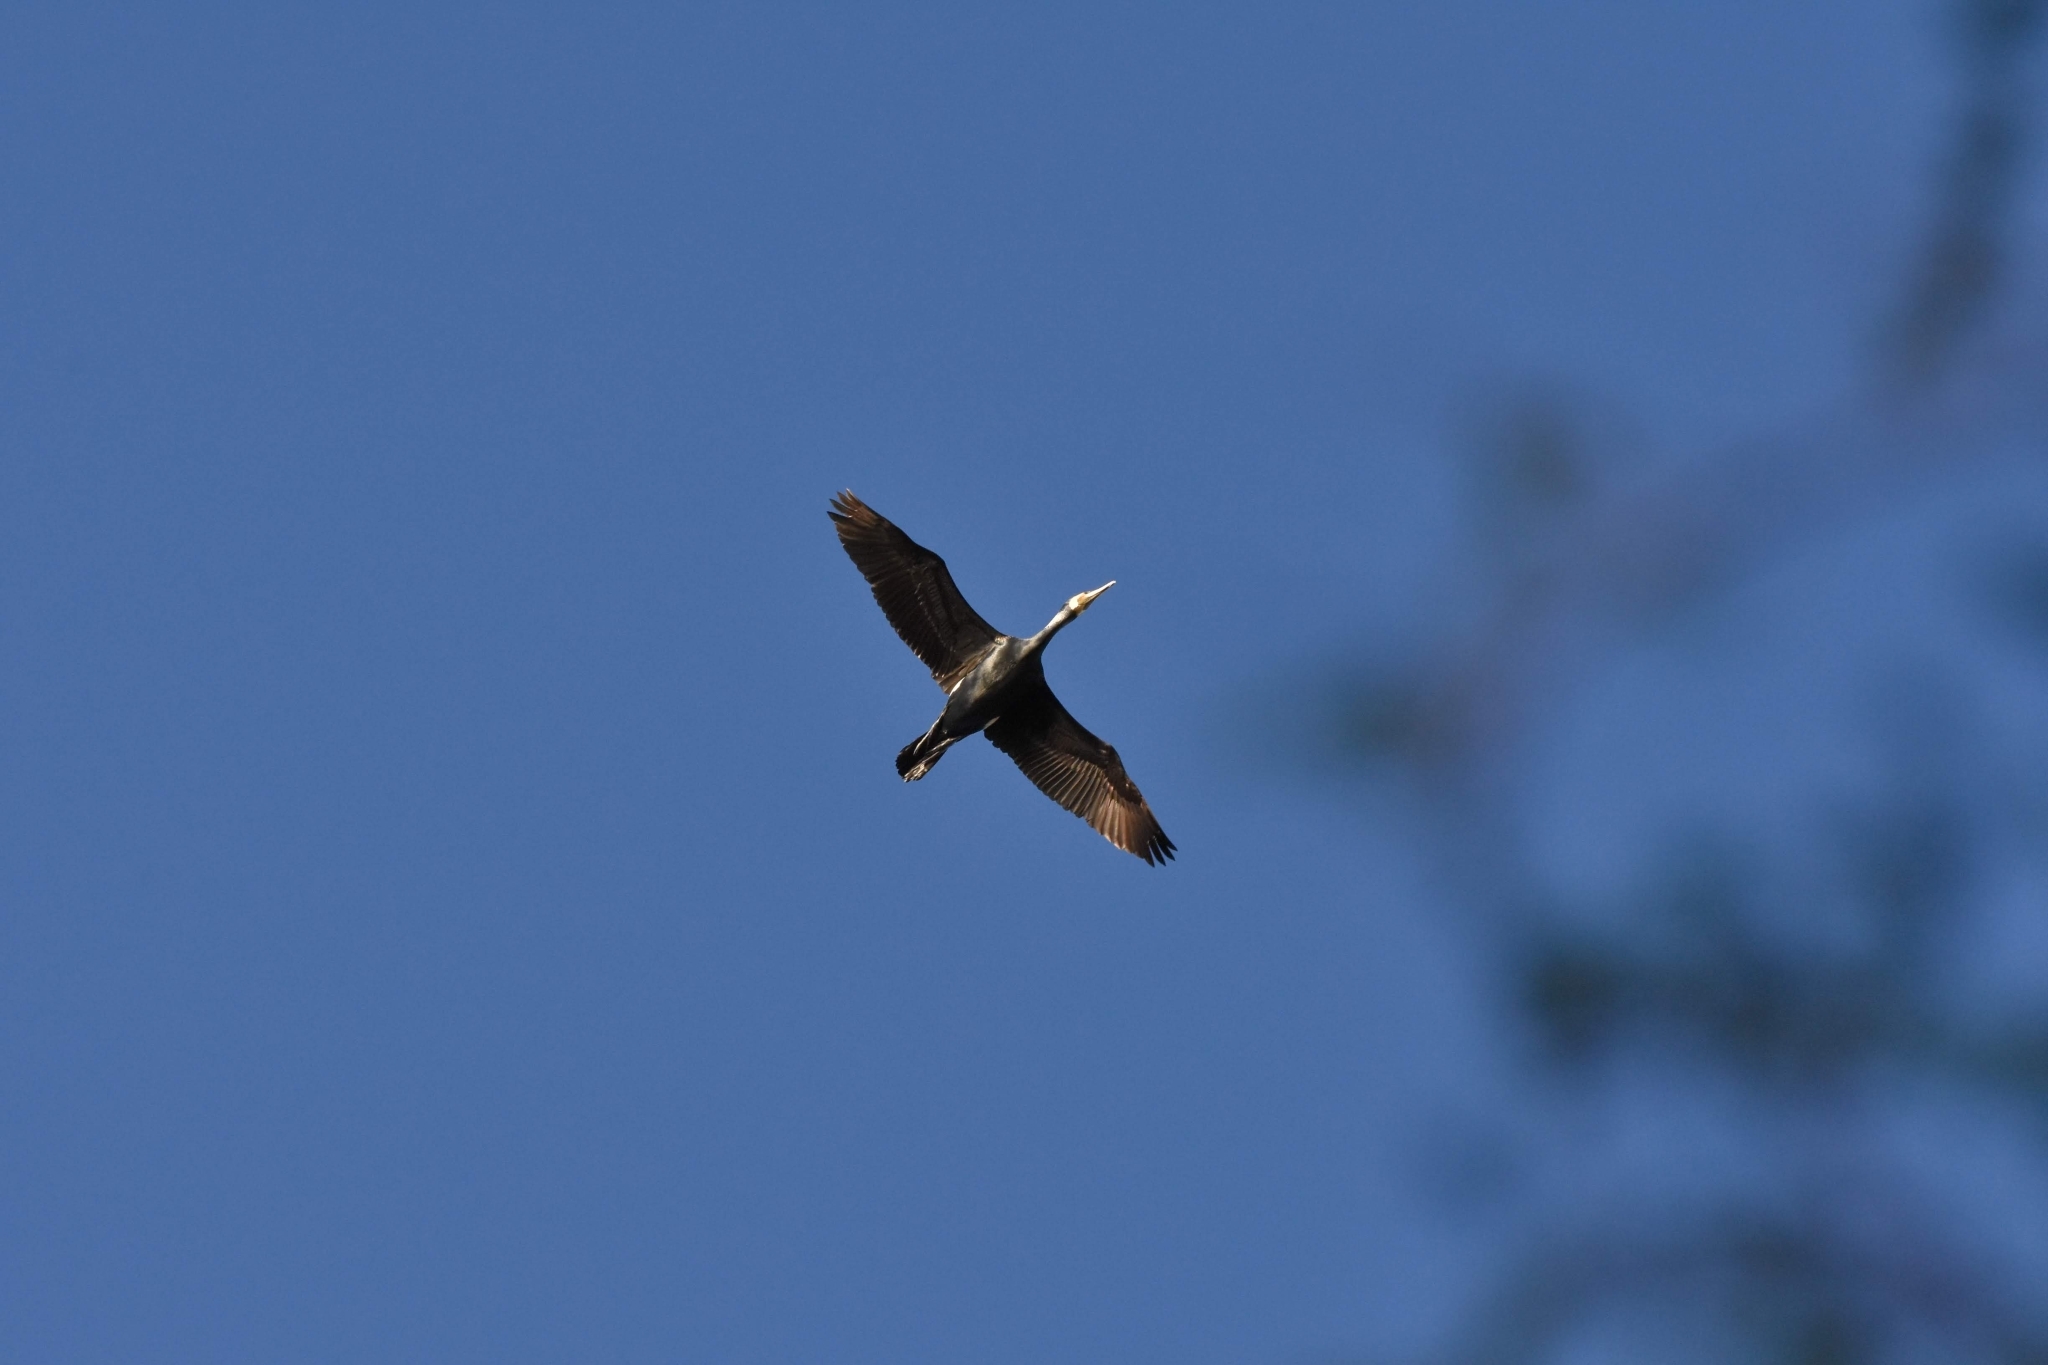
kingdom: Animalia
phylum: Chordata
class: Aves
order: Suliformes
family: Anhingidae
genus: Anhinga
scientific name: Anhinga novaehollandiae
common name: Australasian darter
